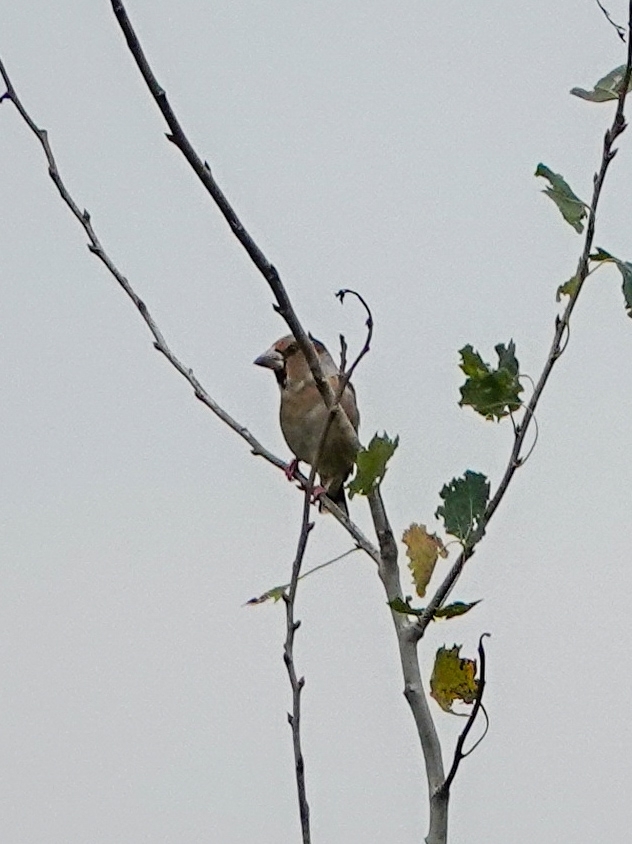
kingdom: Animalia
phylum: Chordata
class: Aves
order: Passeriformes
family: Fringillidae
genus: Coccothraustes
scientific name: Coccothraustes coccothraustes
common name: Hawfinch
